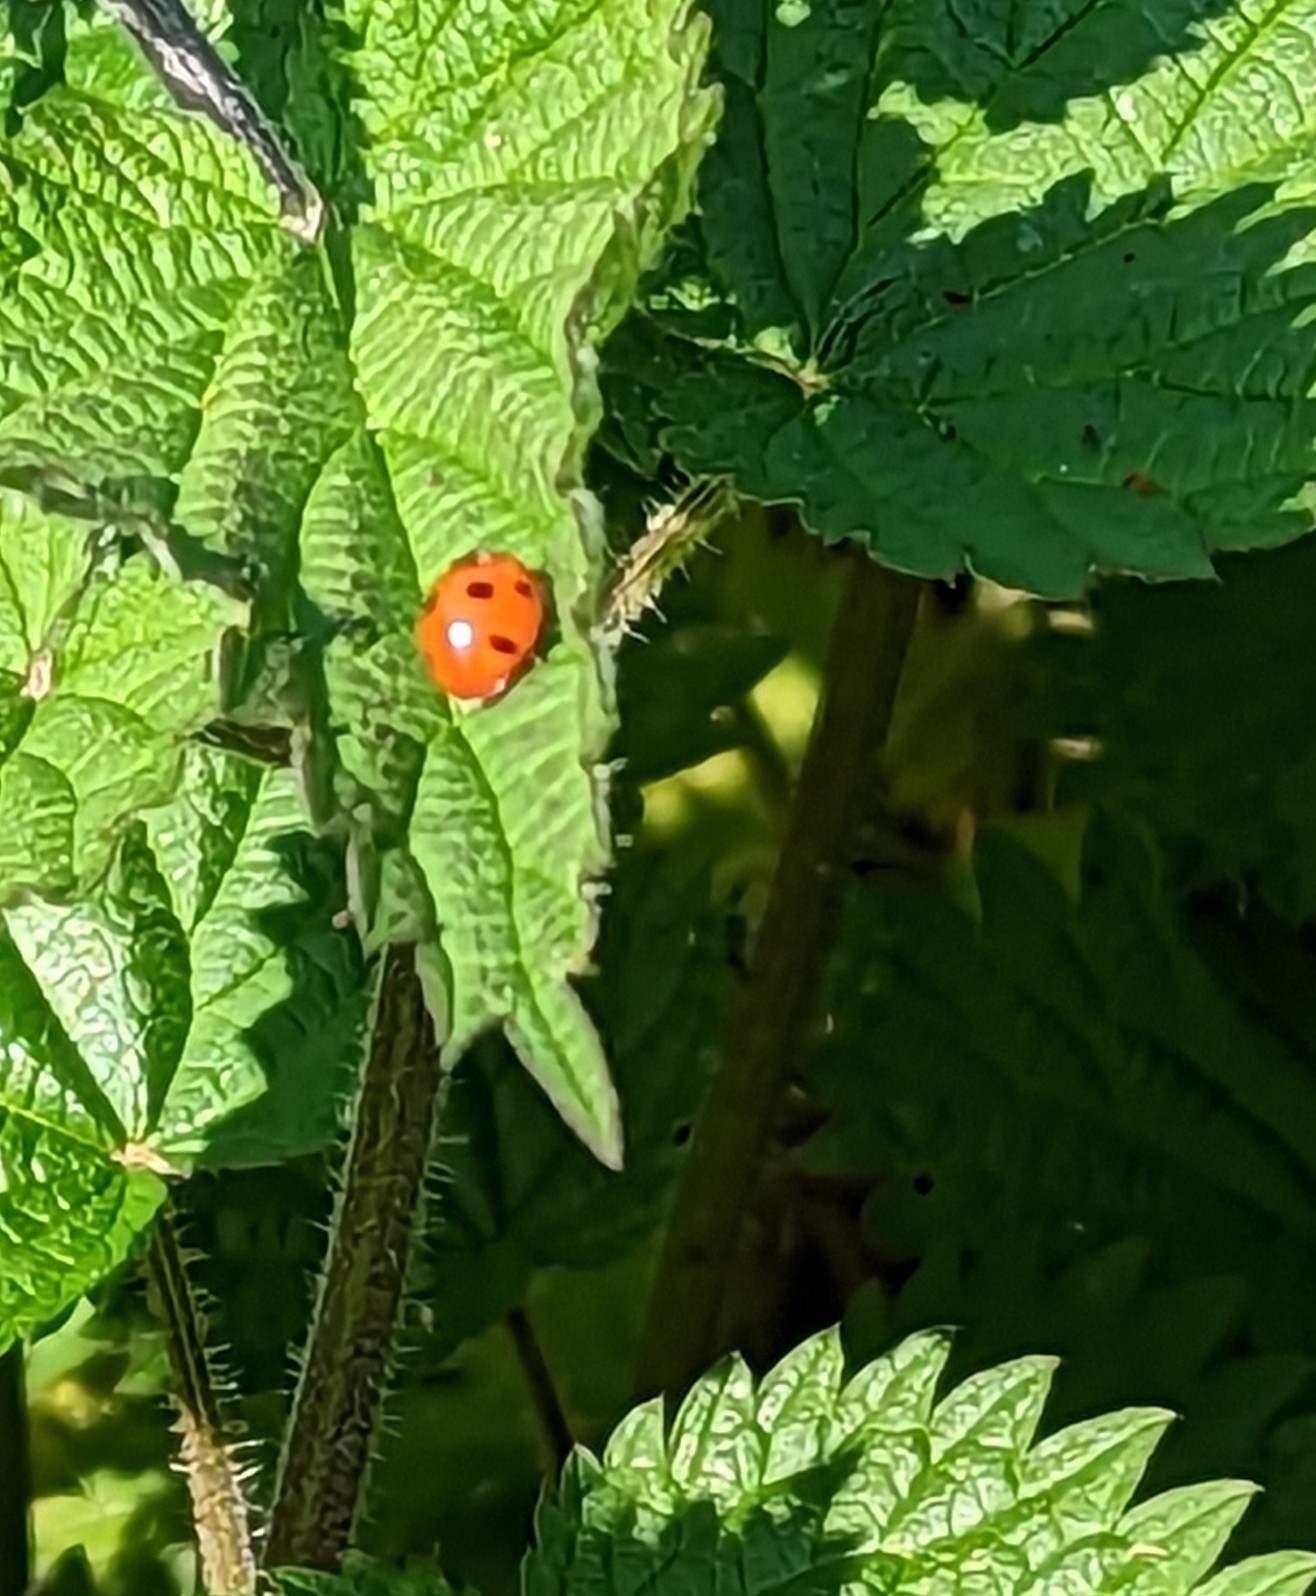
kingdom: Animalia
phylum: Arthropoda
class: Insecta
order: Coleoptera
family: Coccinellidae
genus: Coccinella
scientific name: Coccinella septempunctata
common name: Sevenspotted lady beetle
